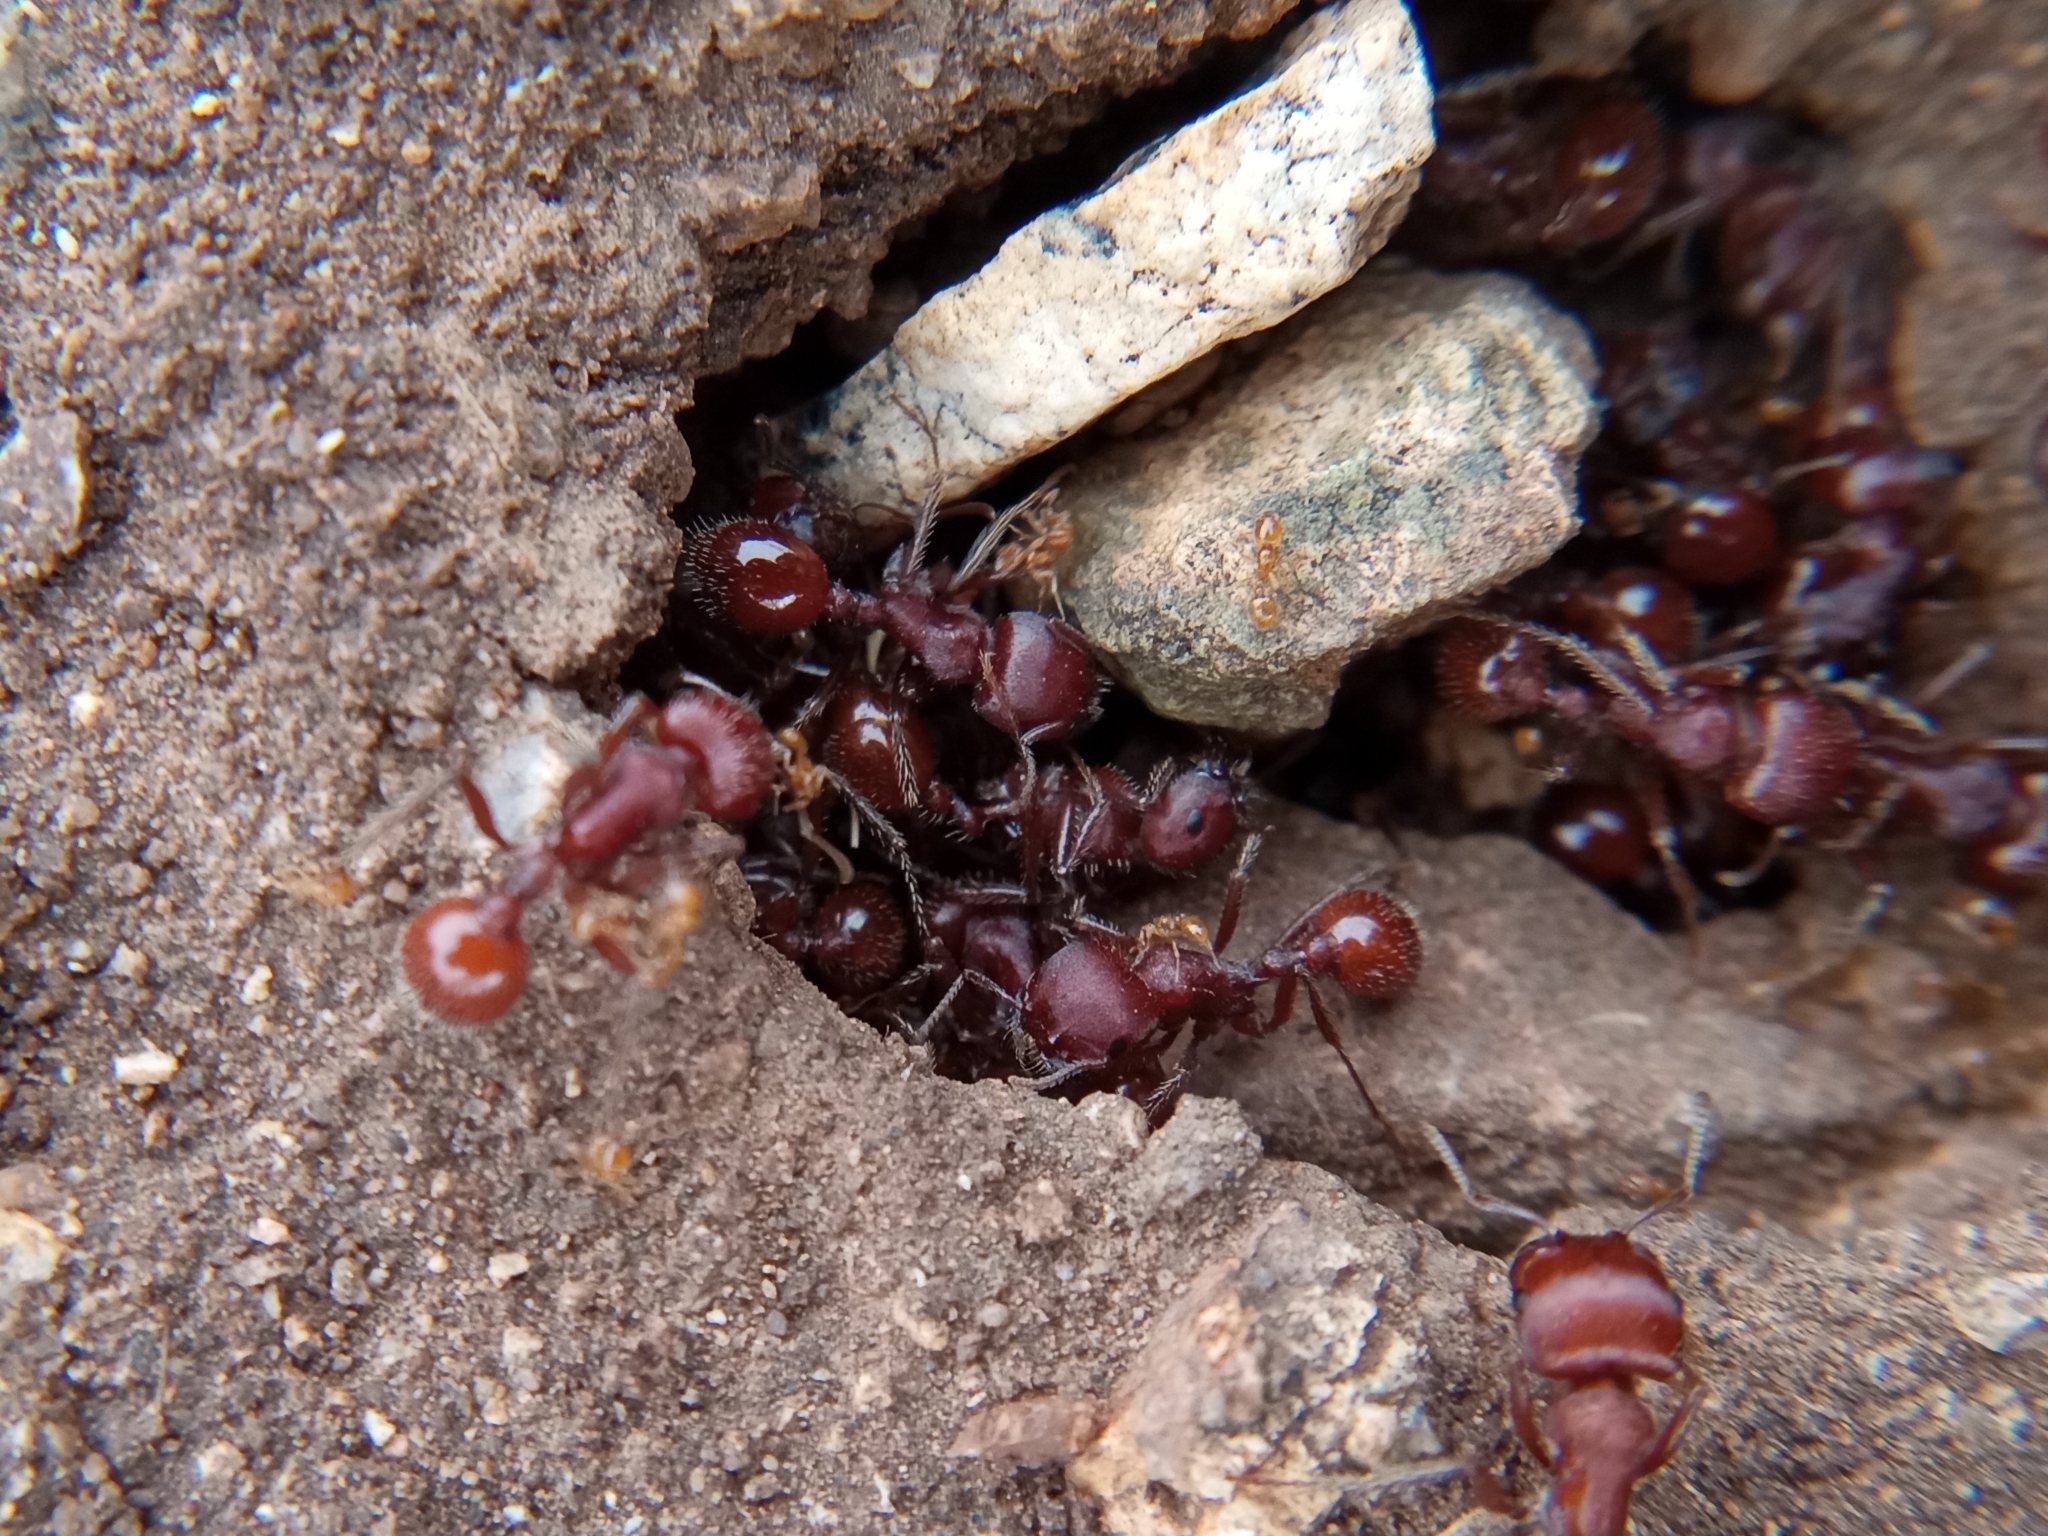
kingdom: Animalia
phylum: Arthropoda
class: Insecta
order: Hymenoptera
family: Formicidae
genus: Pogonomyrmex
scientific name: Pogonomyrmex barbatus
